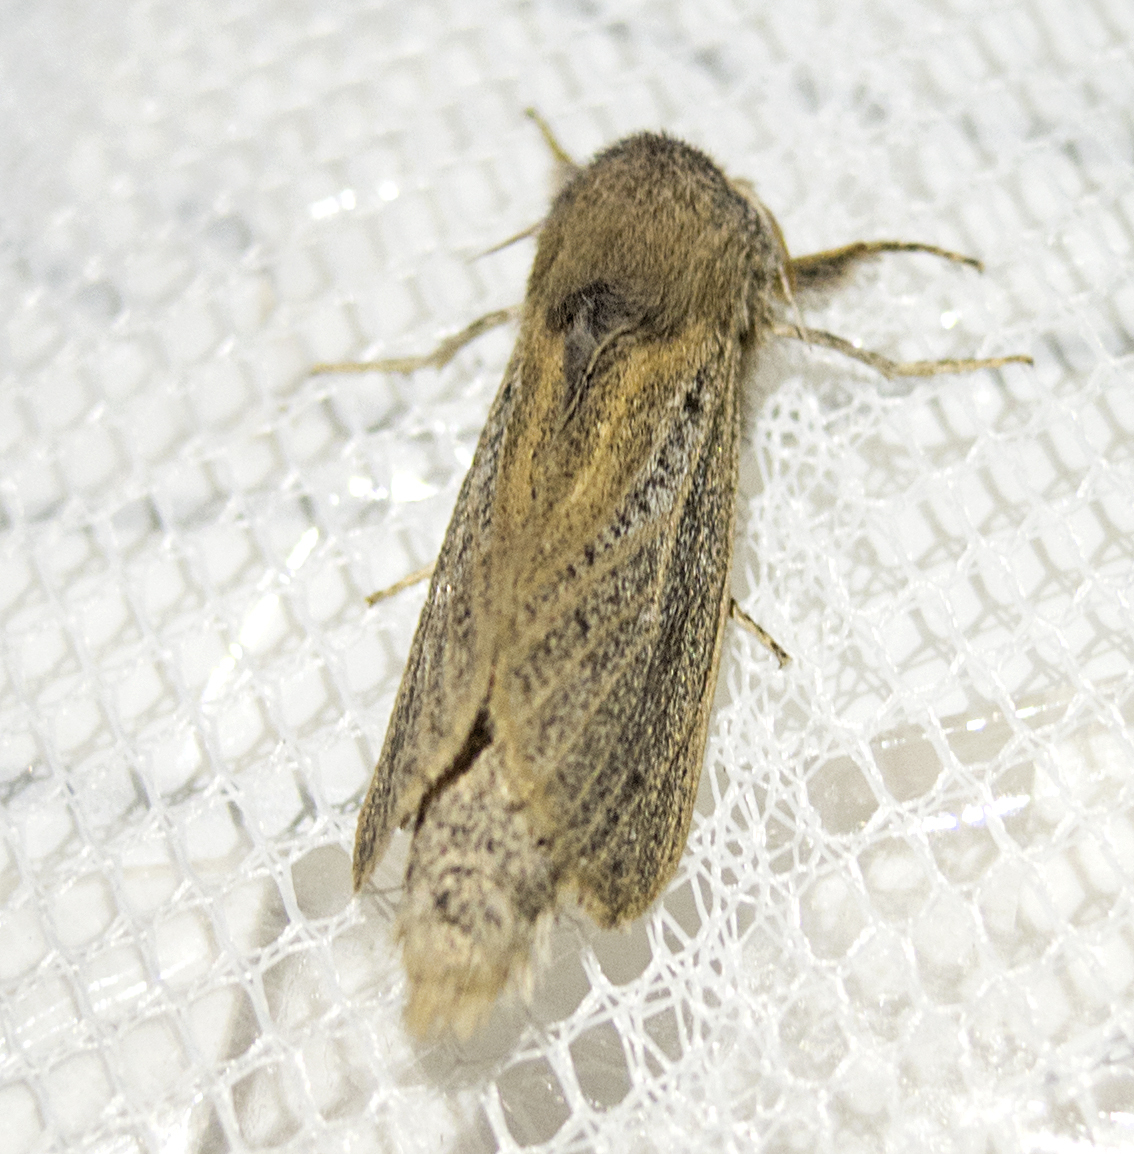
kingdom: Animalia
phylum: Arthropoda
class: Insecta
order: Lepidoptera
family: Cossidae
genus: Phragmataecia
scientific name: Phragmataecia castaneae
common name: Reed leopard
